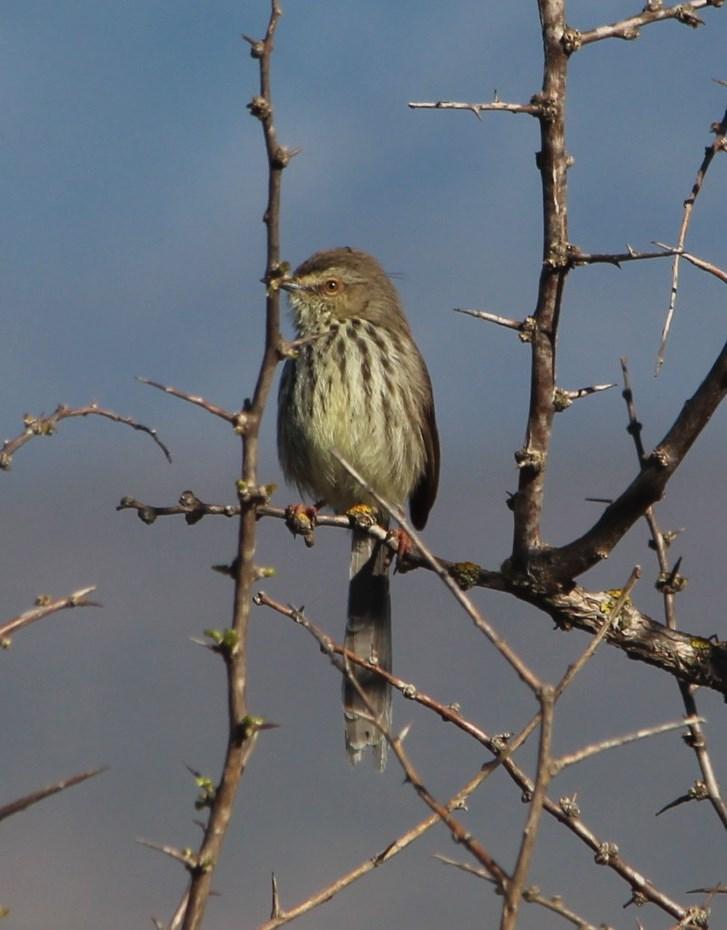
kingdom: Animalia
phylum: Chordata
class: Aves
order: Passeriformes
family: Cisticolidae
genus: Prinia
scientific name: Prinia maculosa
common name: Karoo prinia
